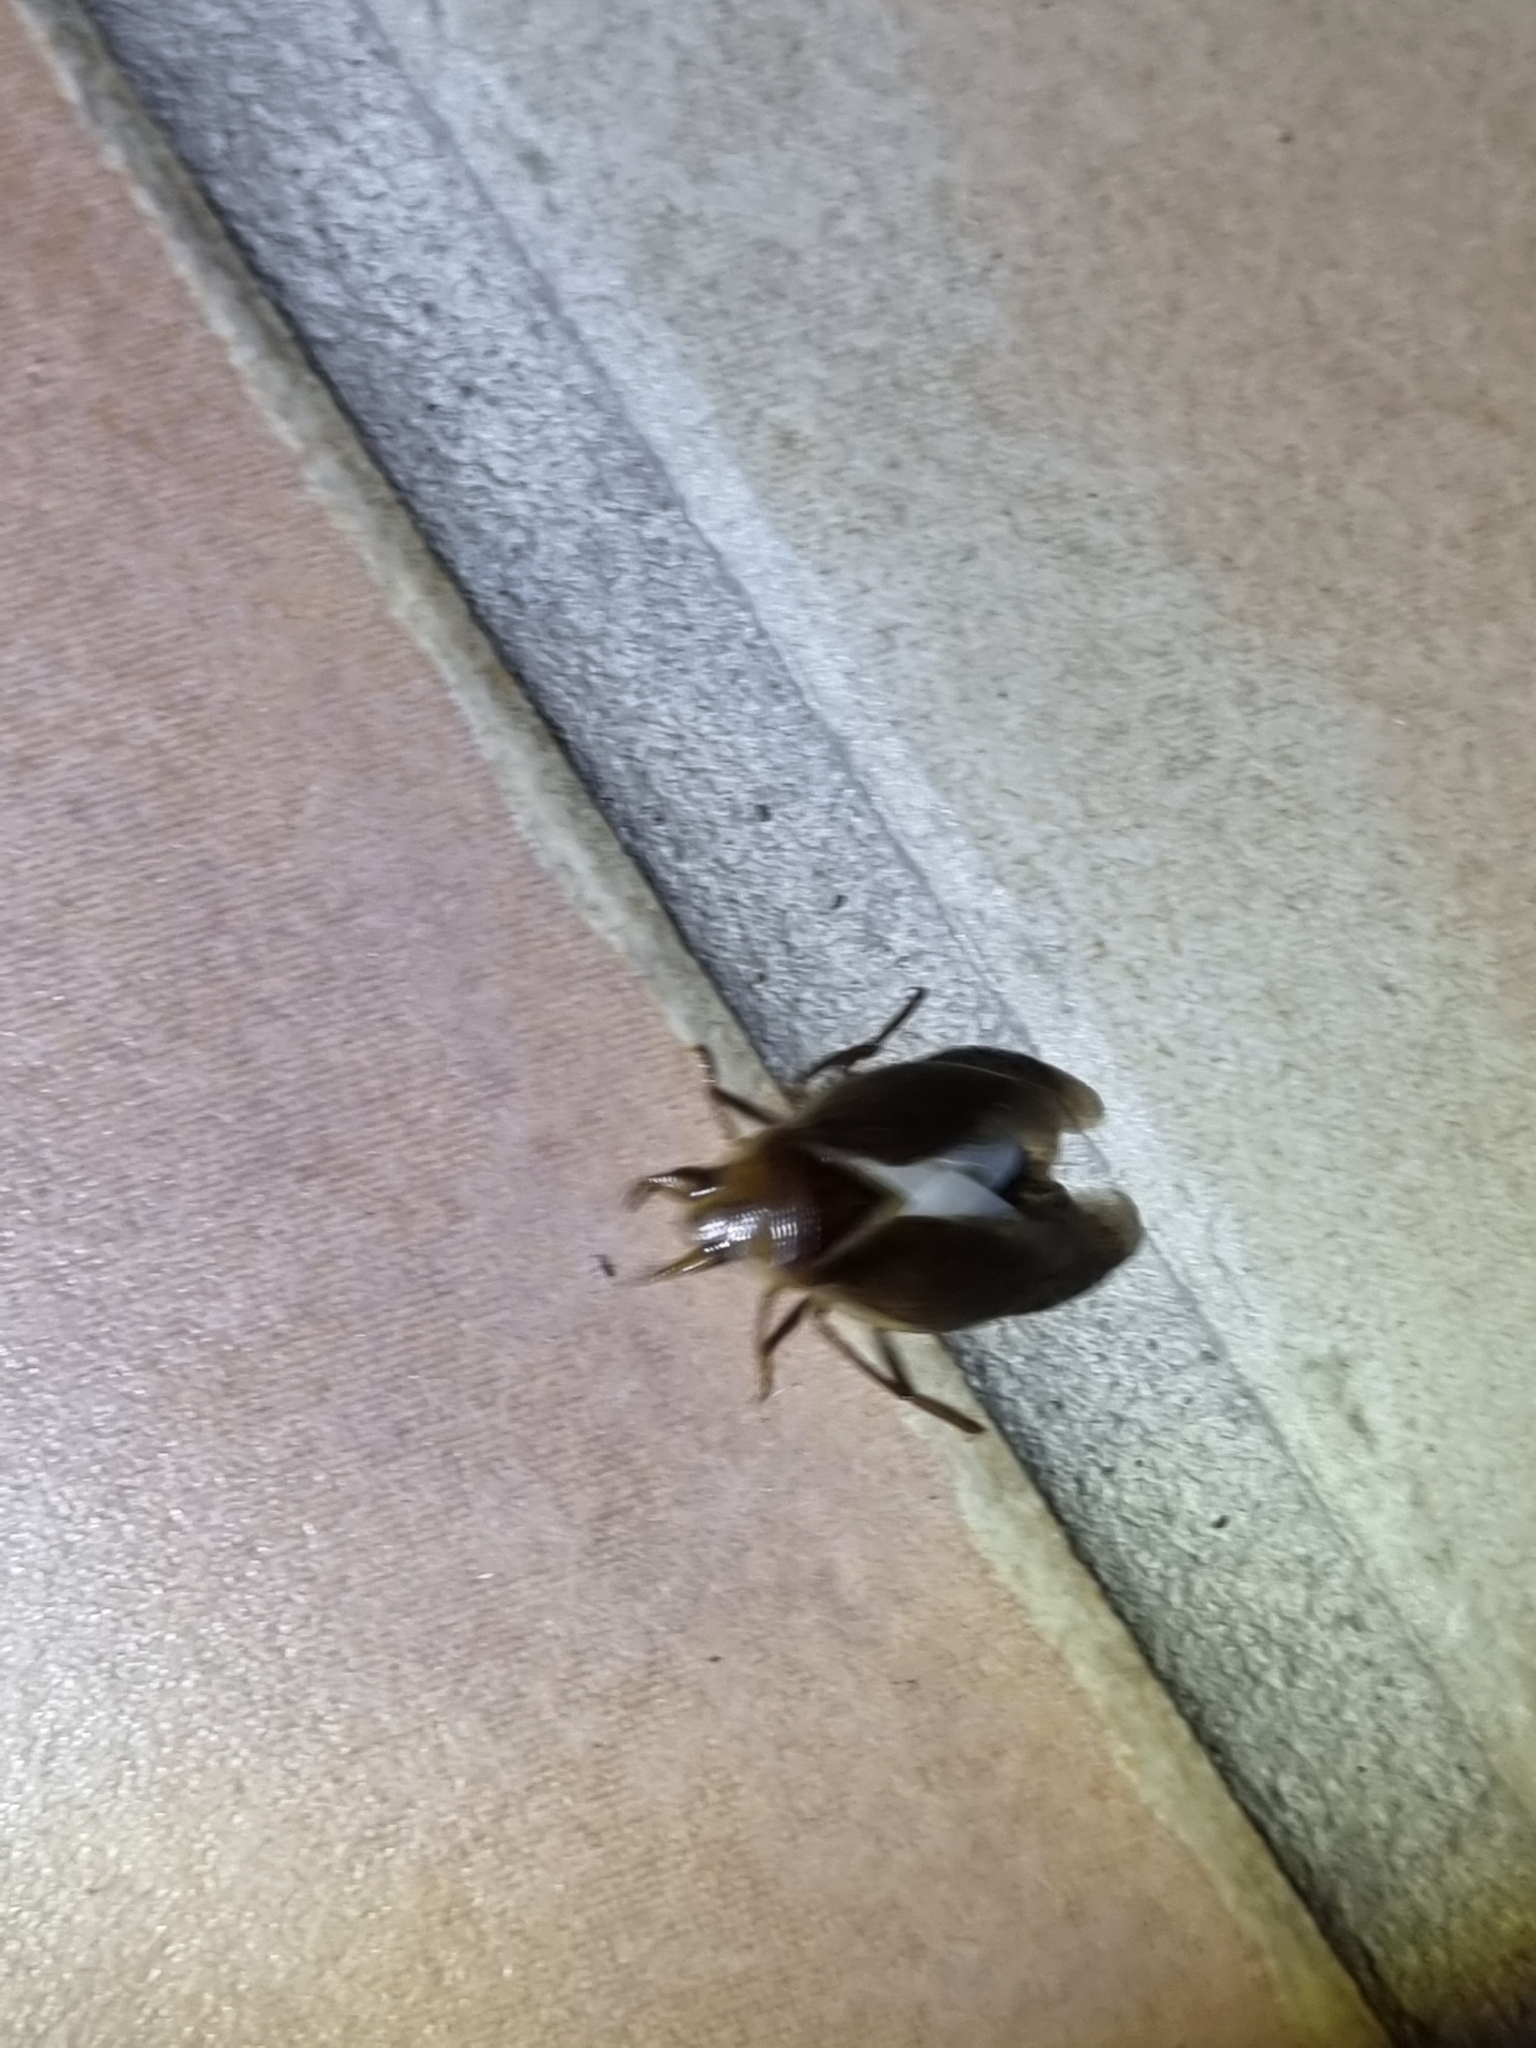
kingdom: Animalia
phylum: Arthropoda
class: Insecta
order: Hemiptera
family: Belostomatidae
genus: Diplonychus
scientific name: Diplonychus eques
